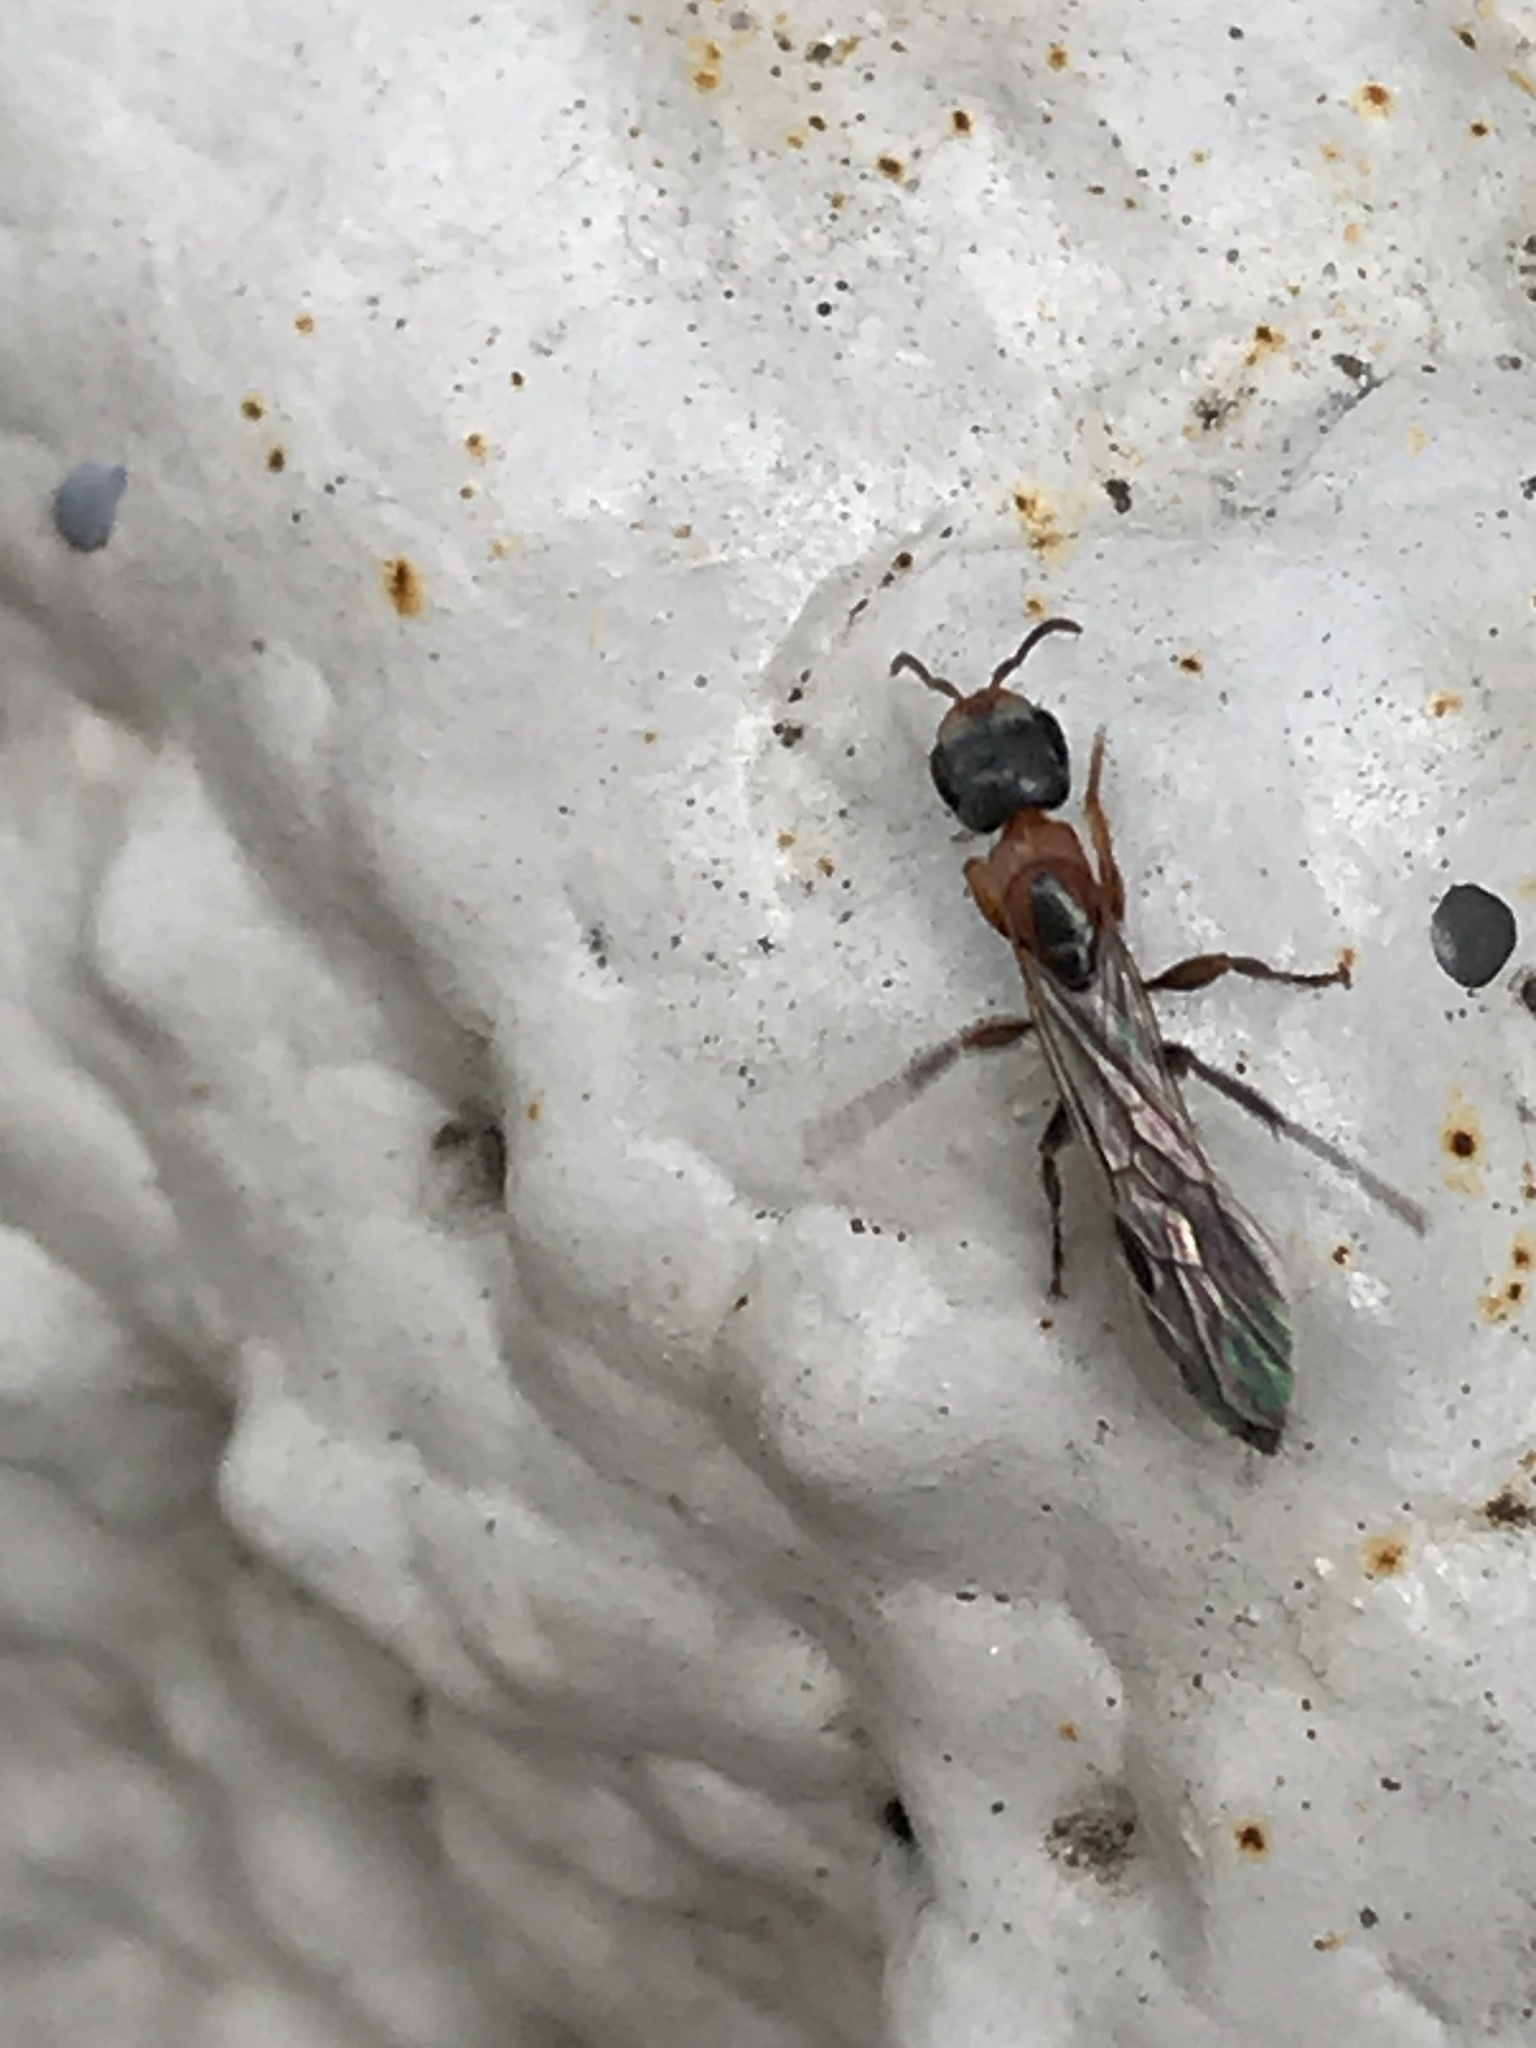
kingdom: Animalia
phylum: Arthropoda
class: Insecta
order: Hymenoptera
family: Formicidae
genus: Pseudomyrmex
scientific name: Pseudomyrmex gracilis
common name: Graceful twig ant
